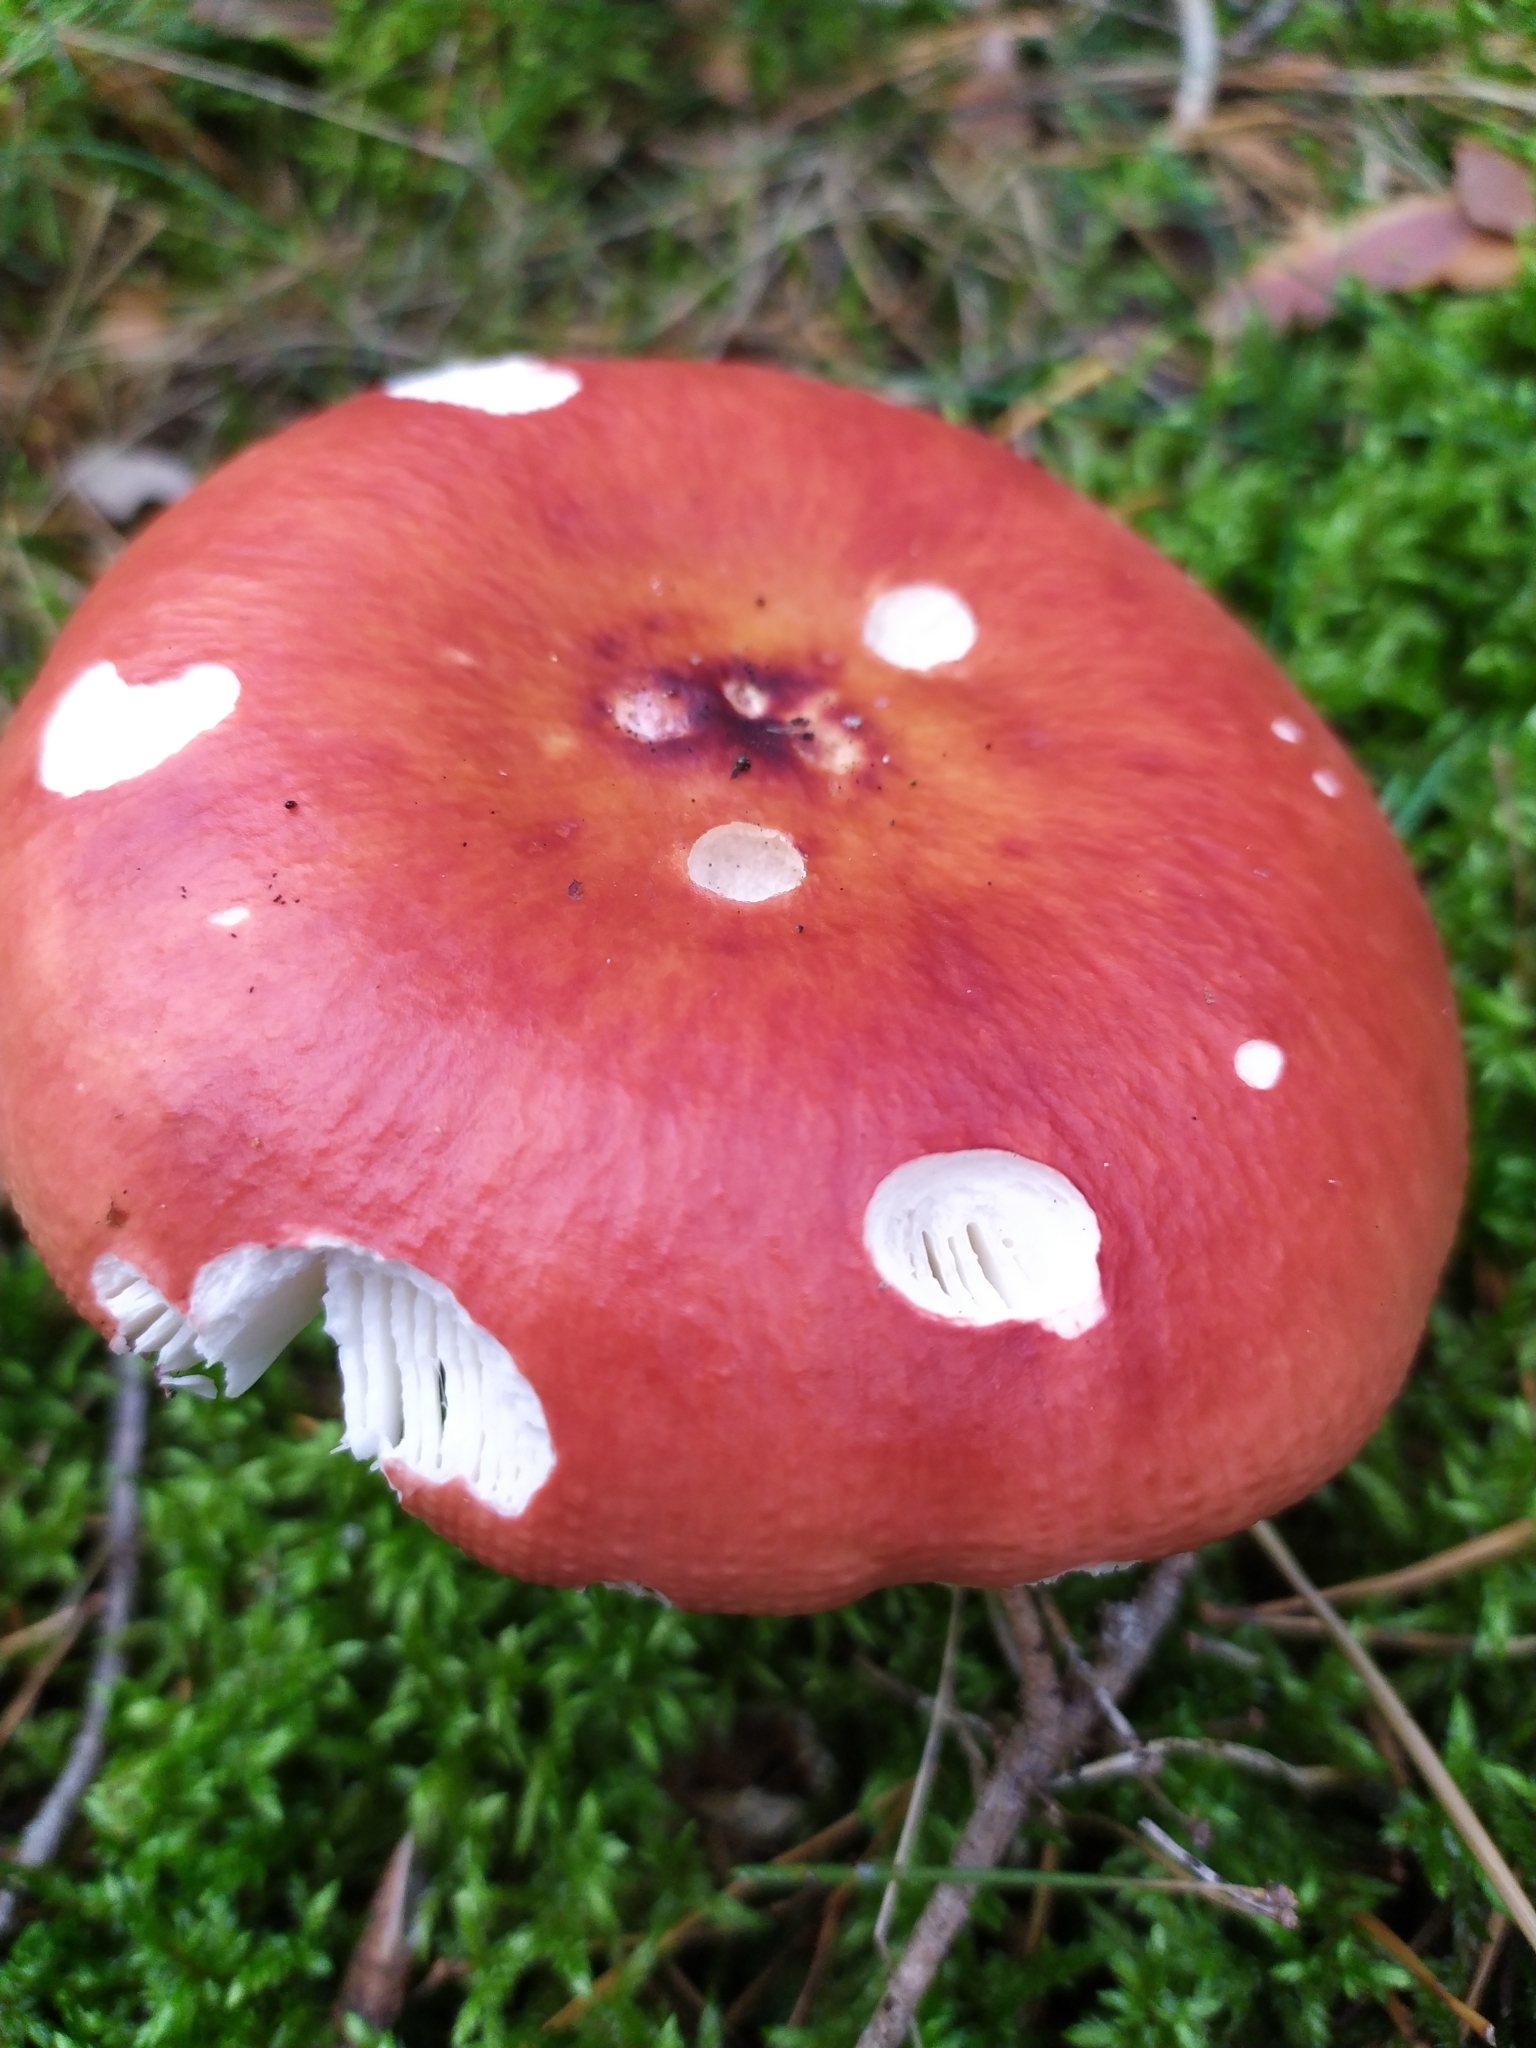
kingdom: Fungi
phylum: Basidiomycota
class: Agaricomycetes
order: Russulales
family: Russulaceae
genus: Russula
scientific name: Russula
